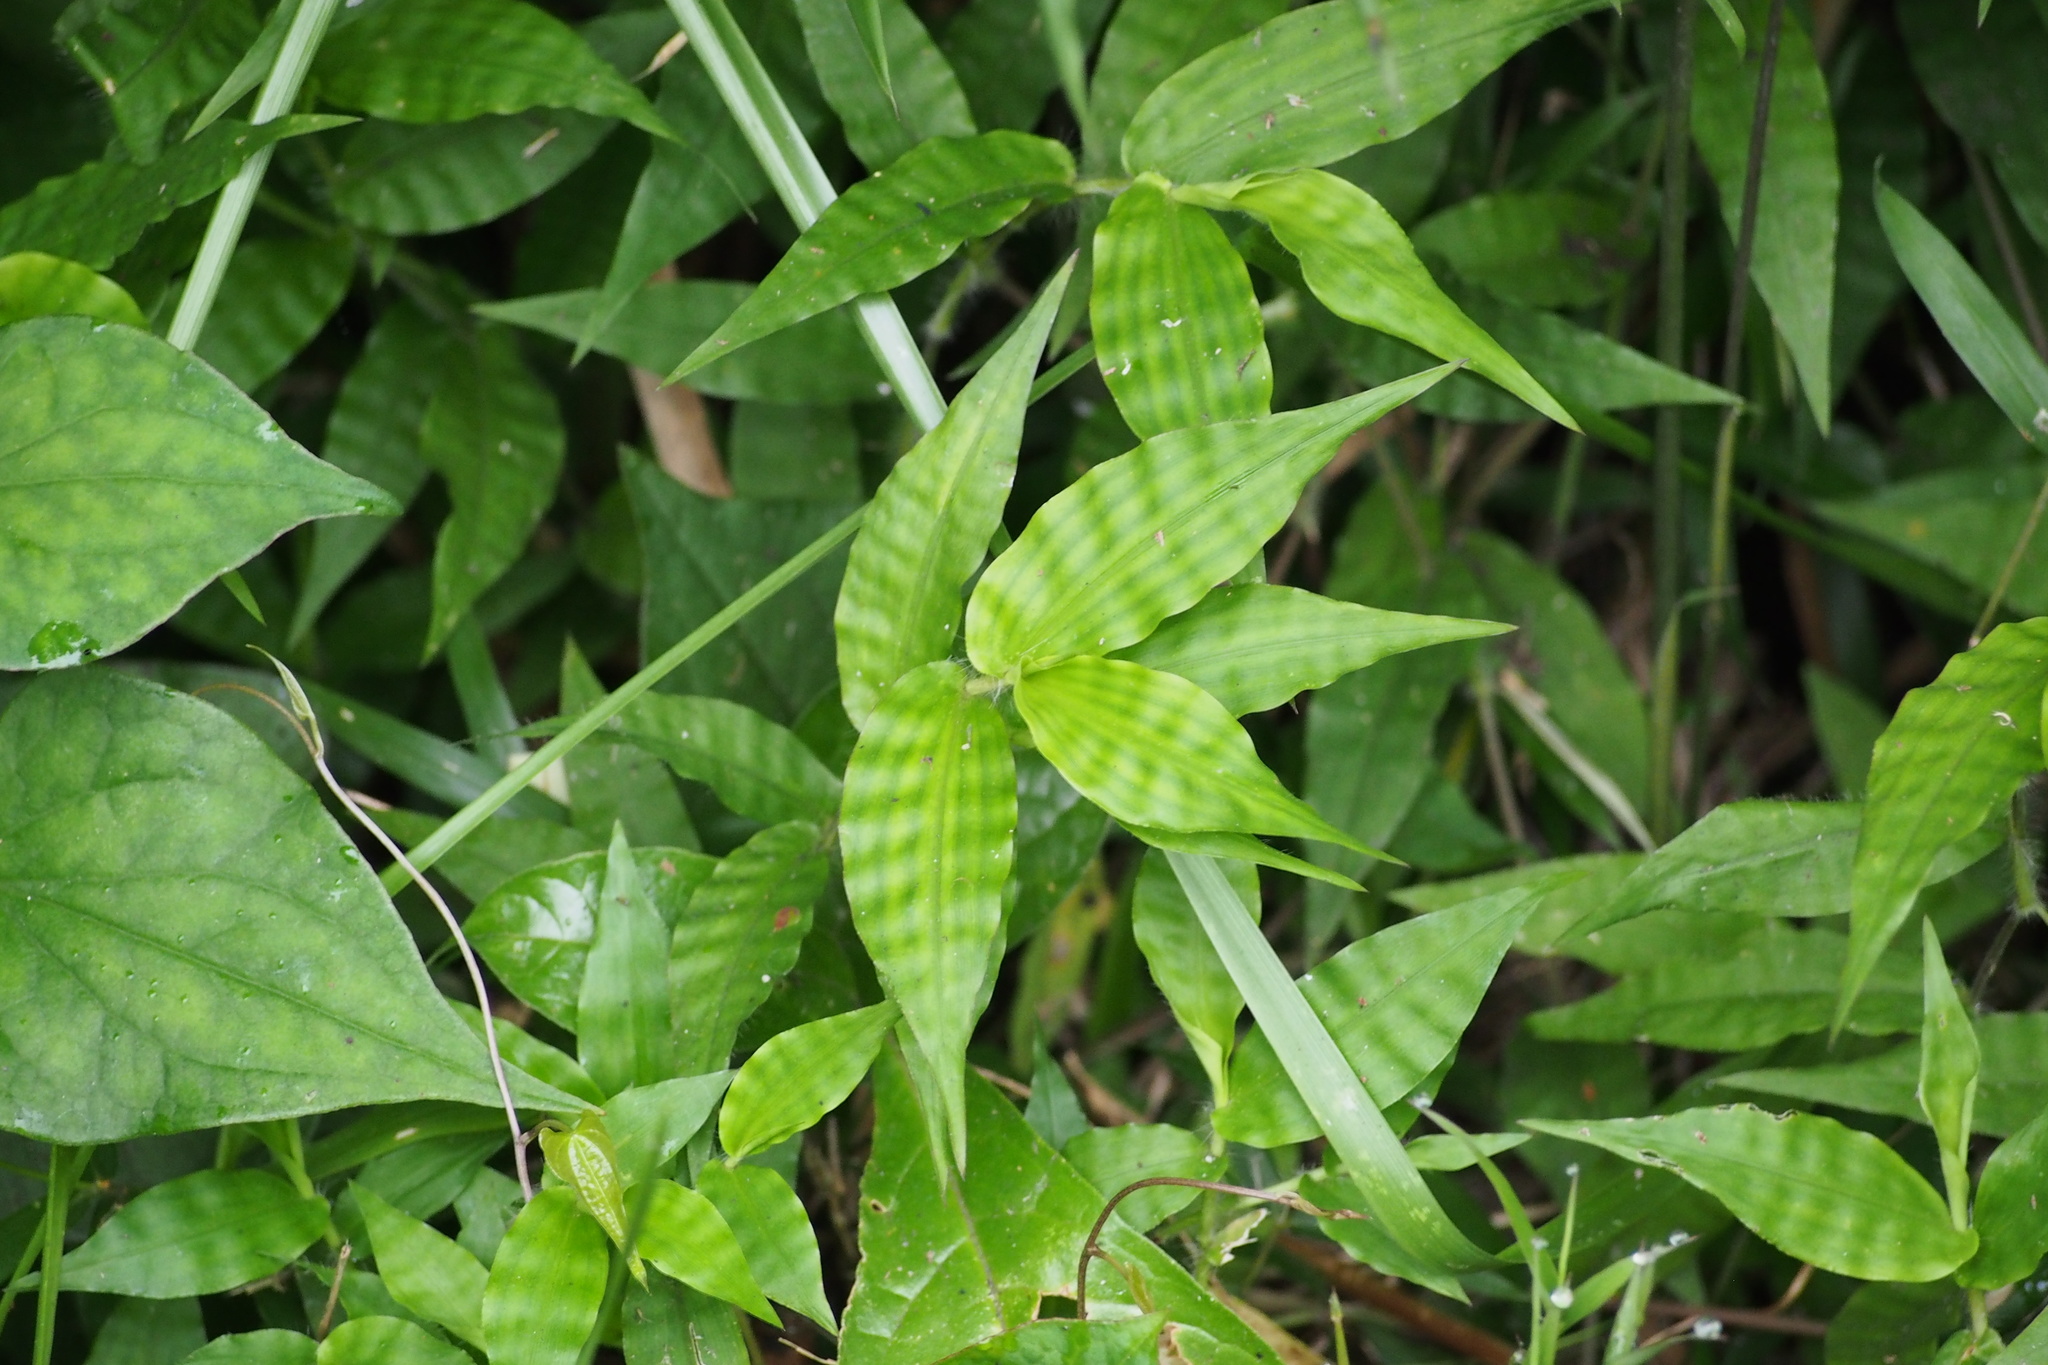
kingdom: Plantae
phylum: Tracheophyta
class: Liliopsida
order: Poales
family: Poaceae
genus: Oplismenus
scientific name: Oplismenus undulatifolius
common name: Wavyleaf basketgrass
